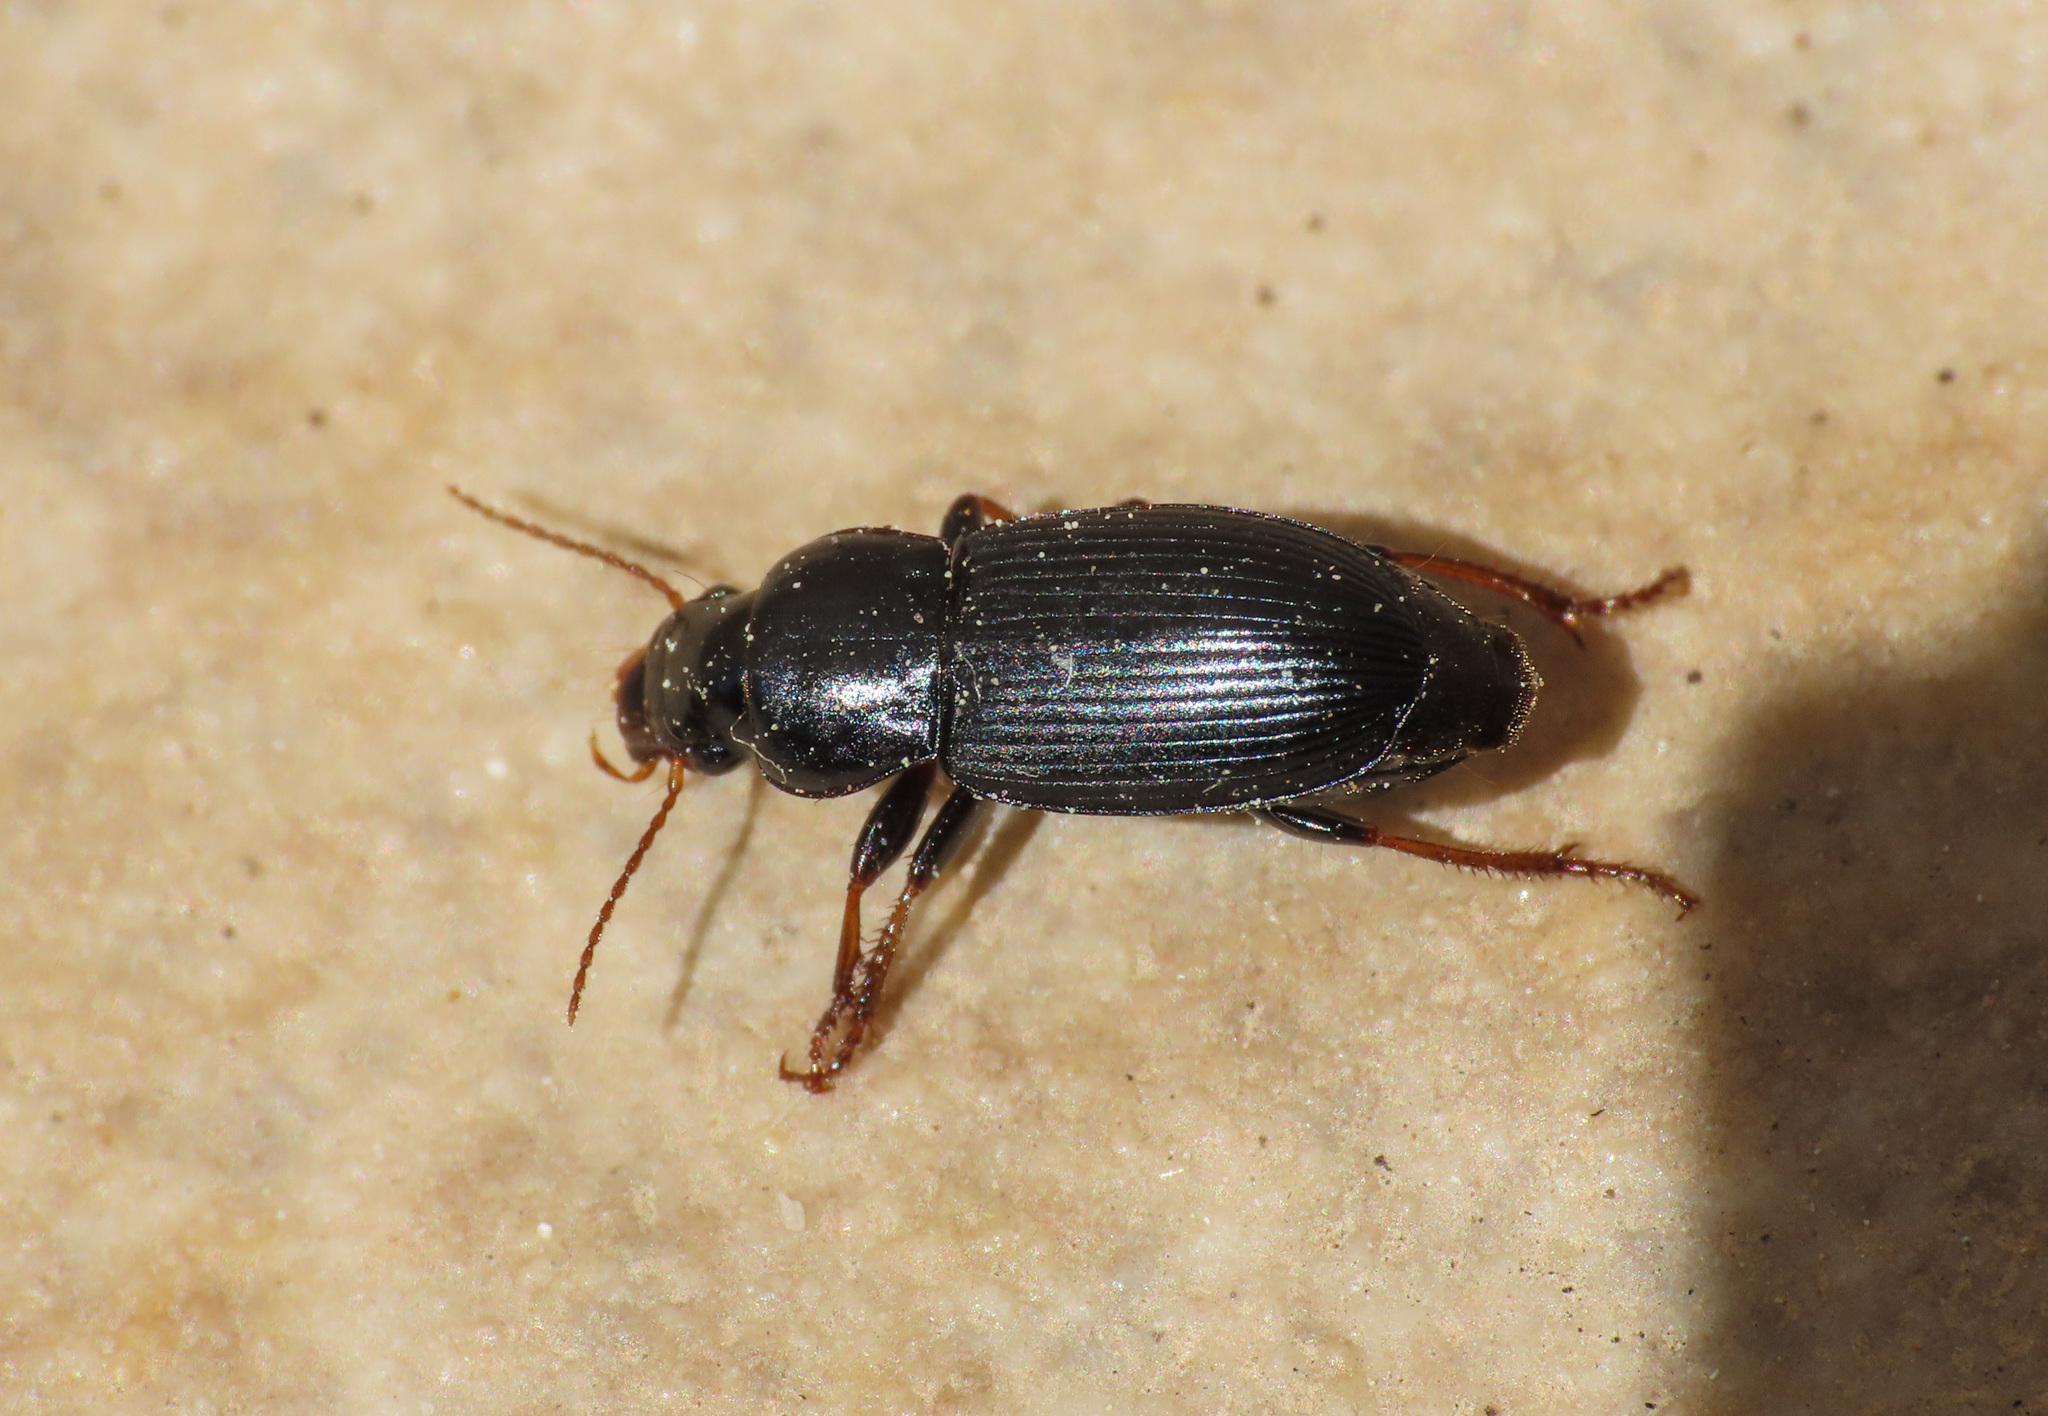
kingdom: Animalia
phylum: Arthropoda
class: Insecta
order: Coleoptera
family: Carabidae
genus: Harpalus
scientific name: Harpalus sulphuripes
